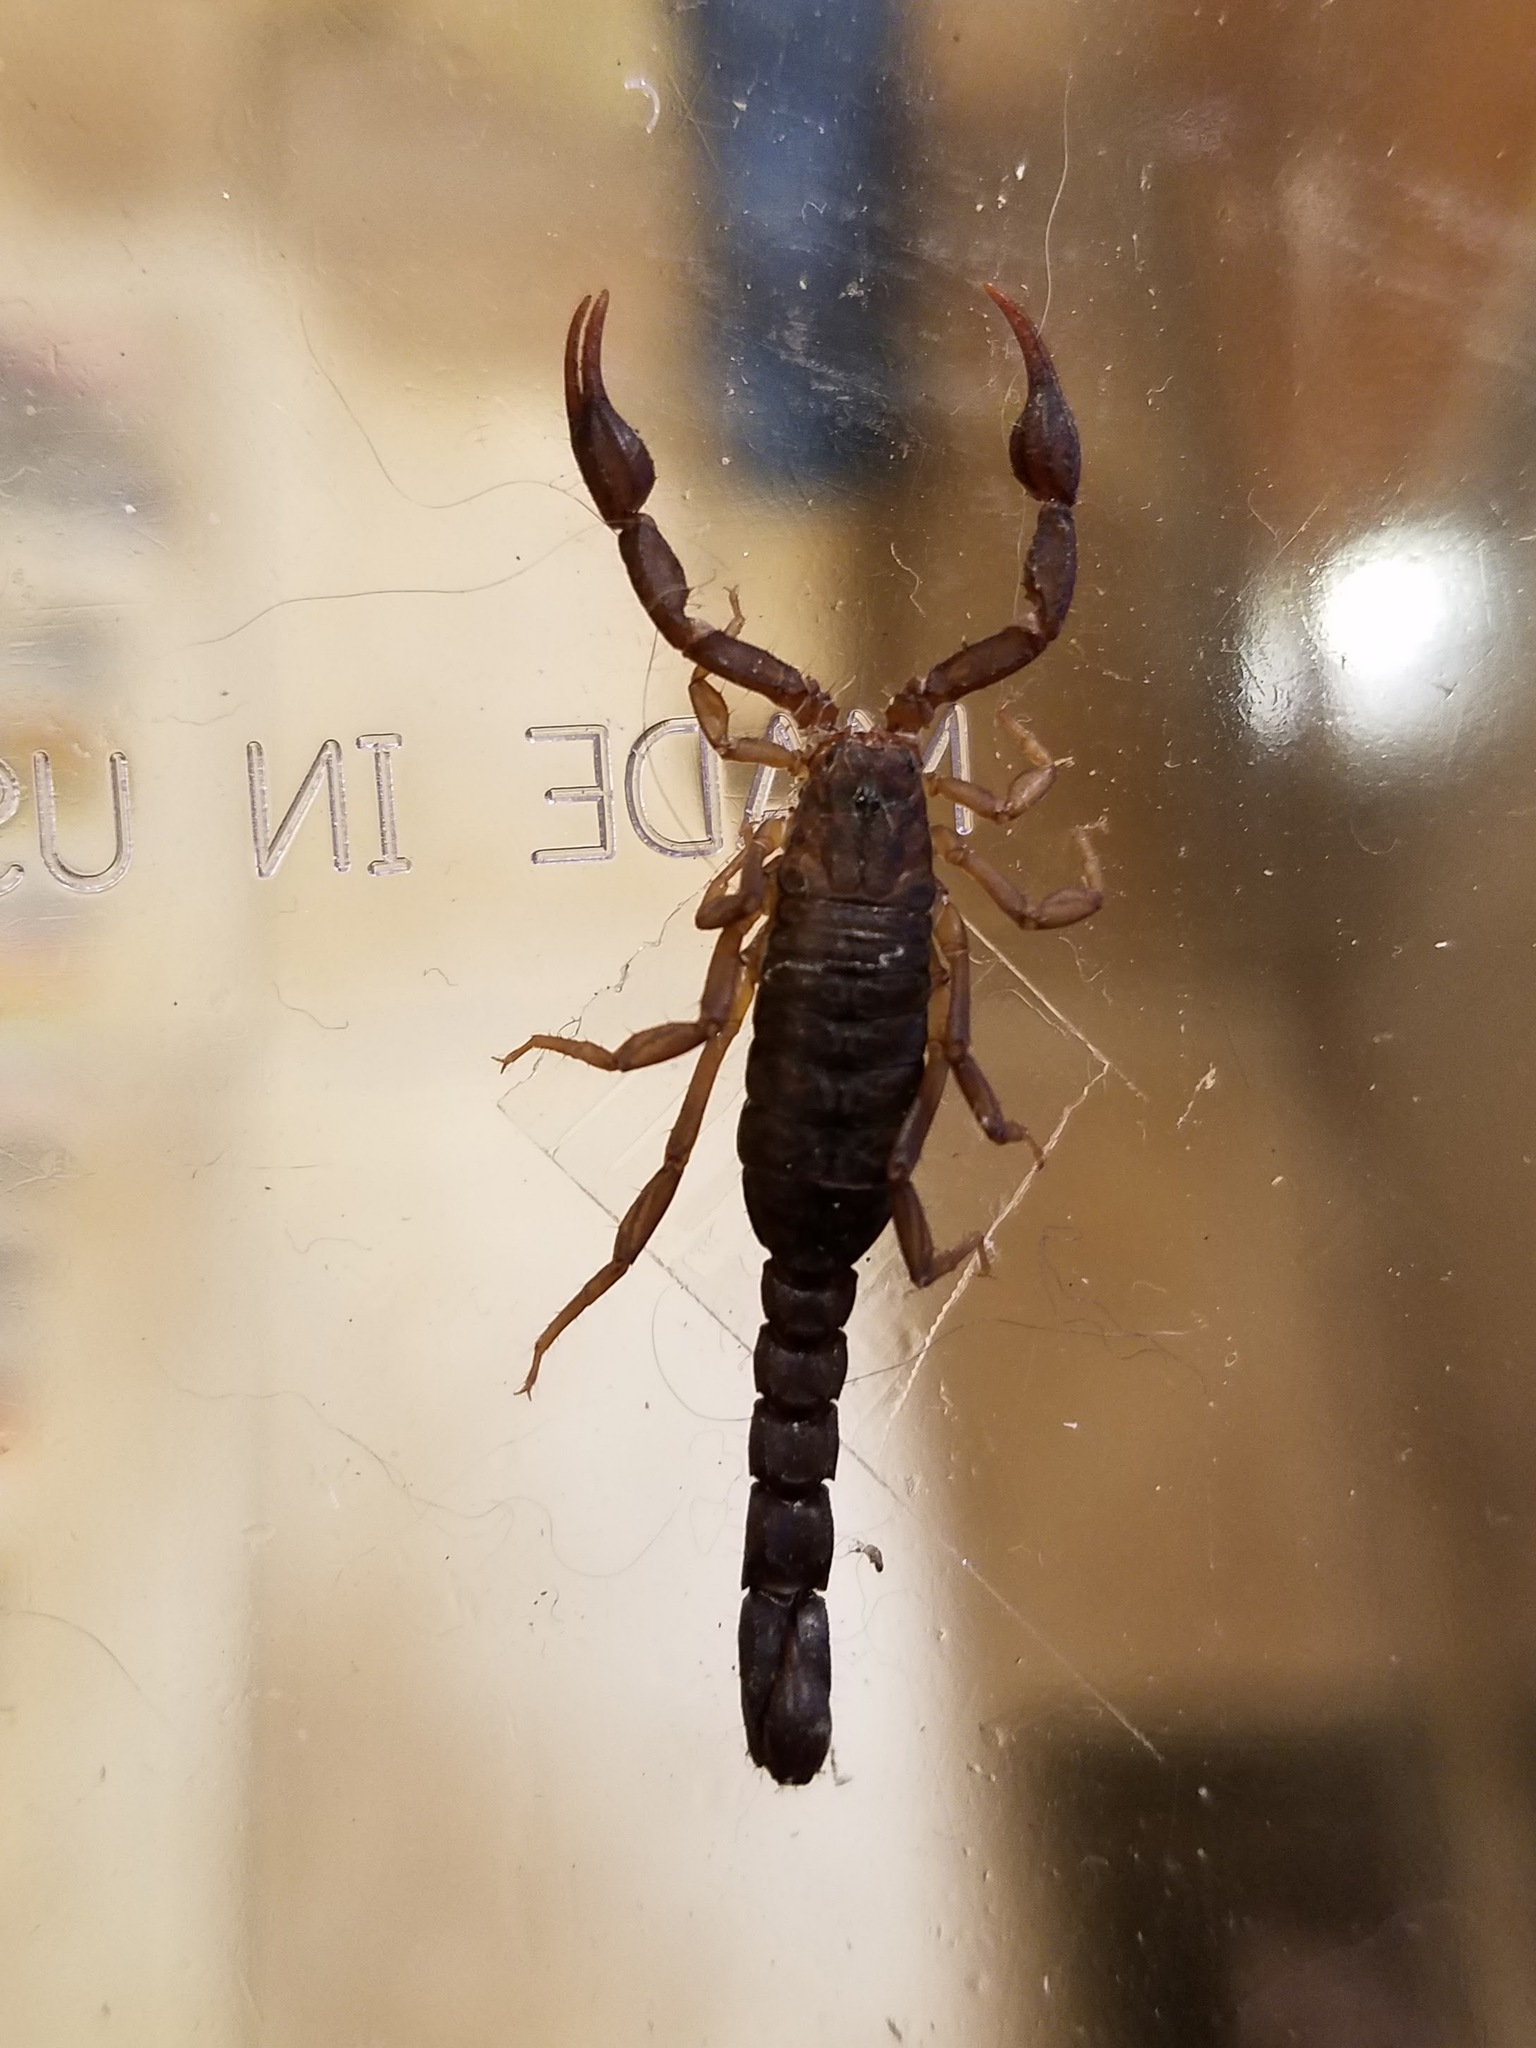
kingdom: Animalia
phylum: Arthropoda
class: Arachnida
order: Scorpiones
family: Vaejovidae
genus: Vaejovis
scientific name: Vaejovis carolinianus
